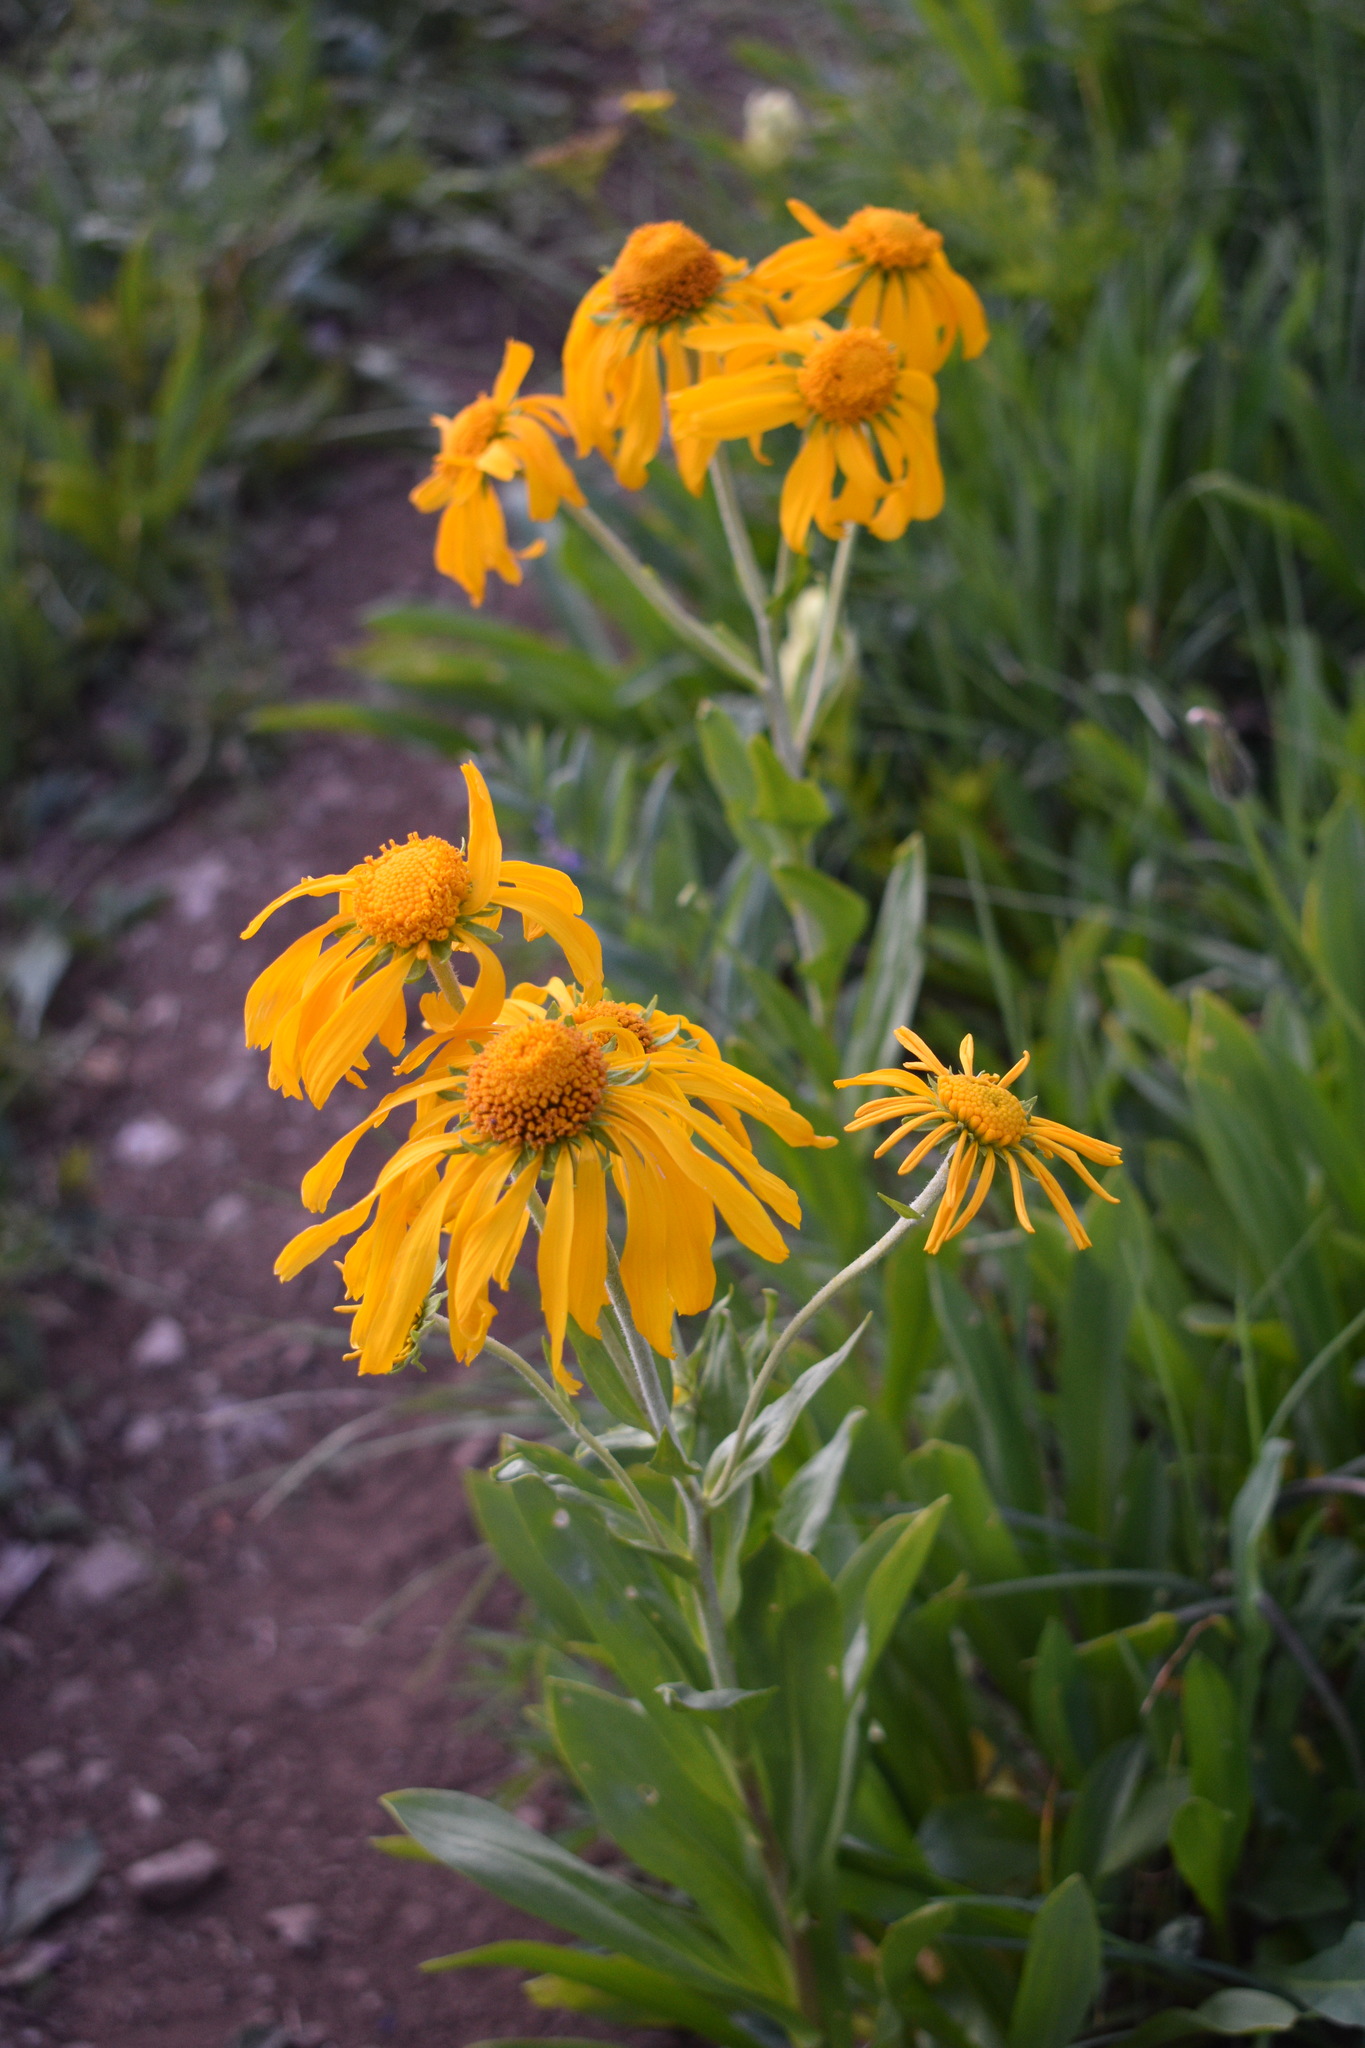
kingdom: Plantae
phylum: Tracheophyta
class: Magnoliopsida
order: Asterales
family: Asteraceae
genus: Hymenoxys
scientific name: Hymenoxys hoopesii
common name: Orange-sneezeweed
